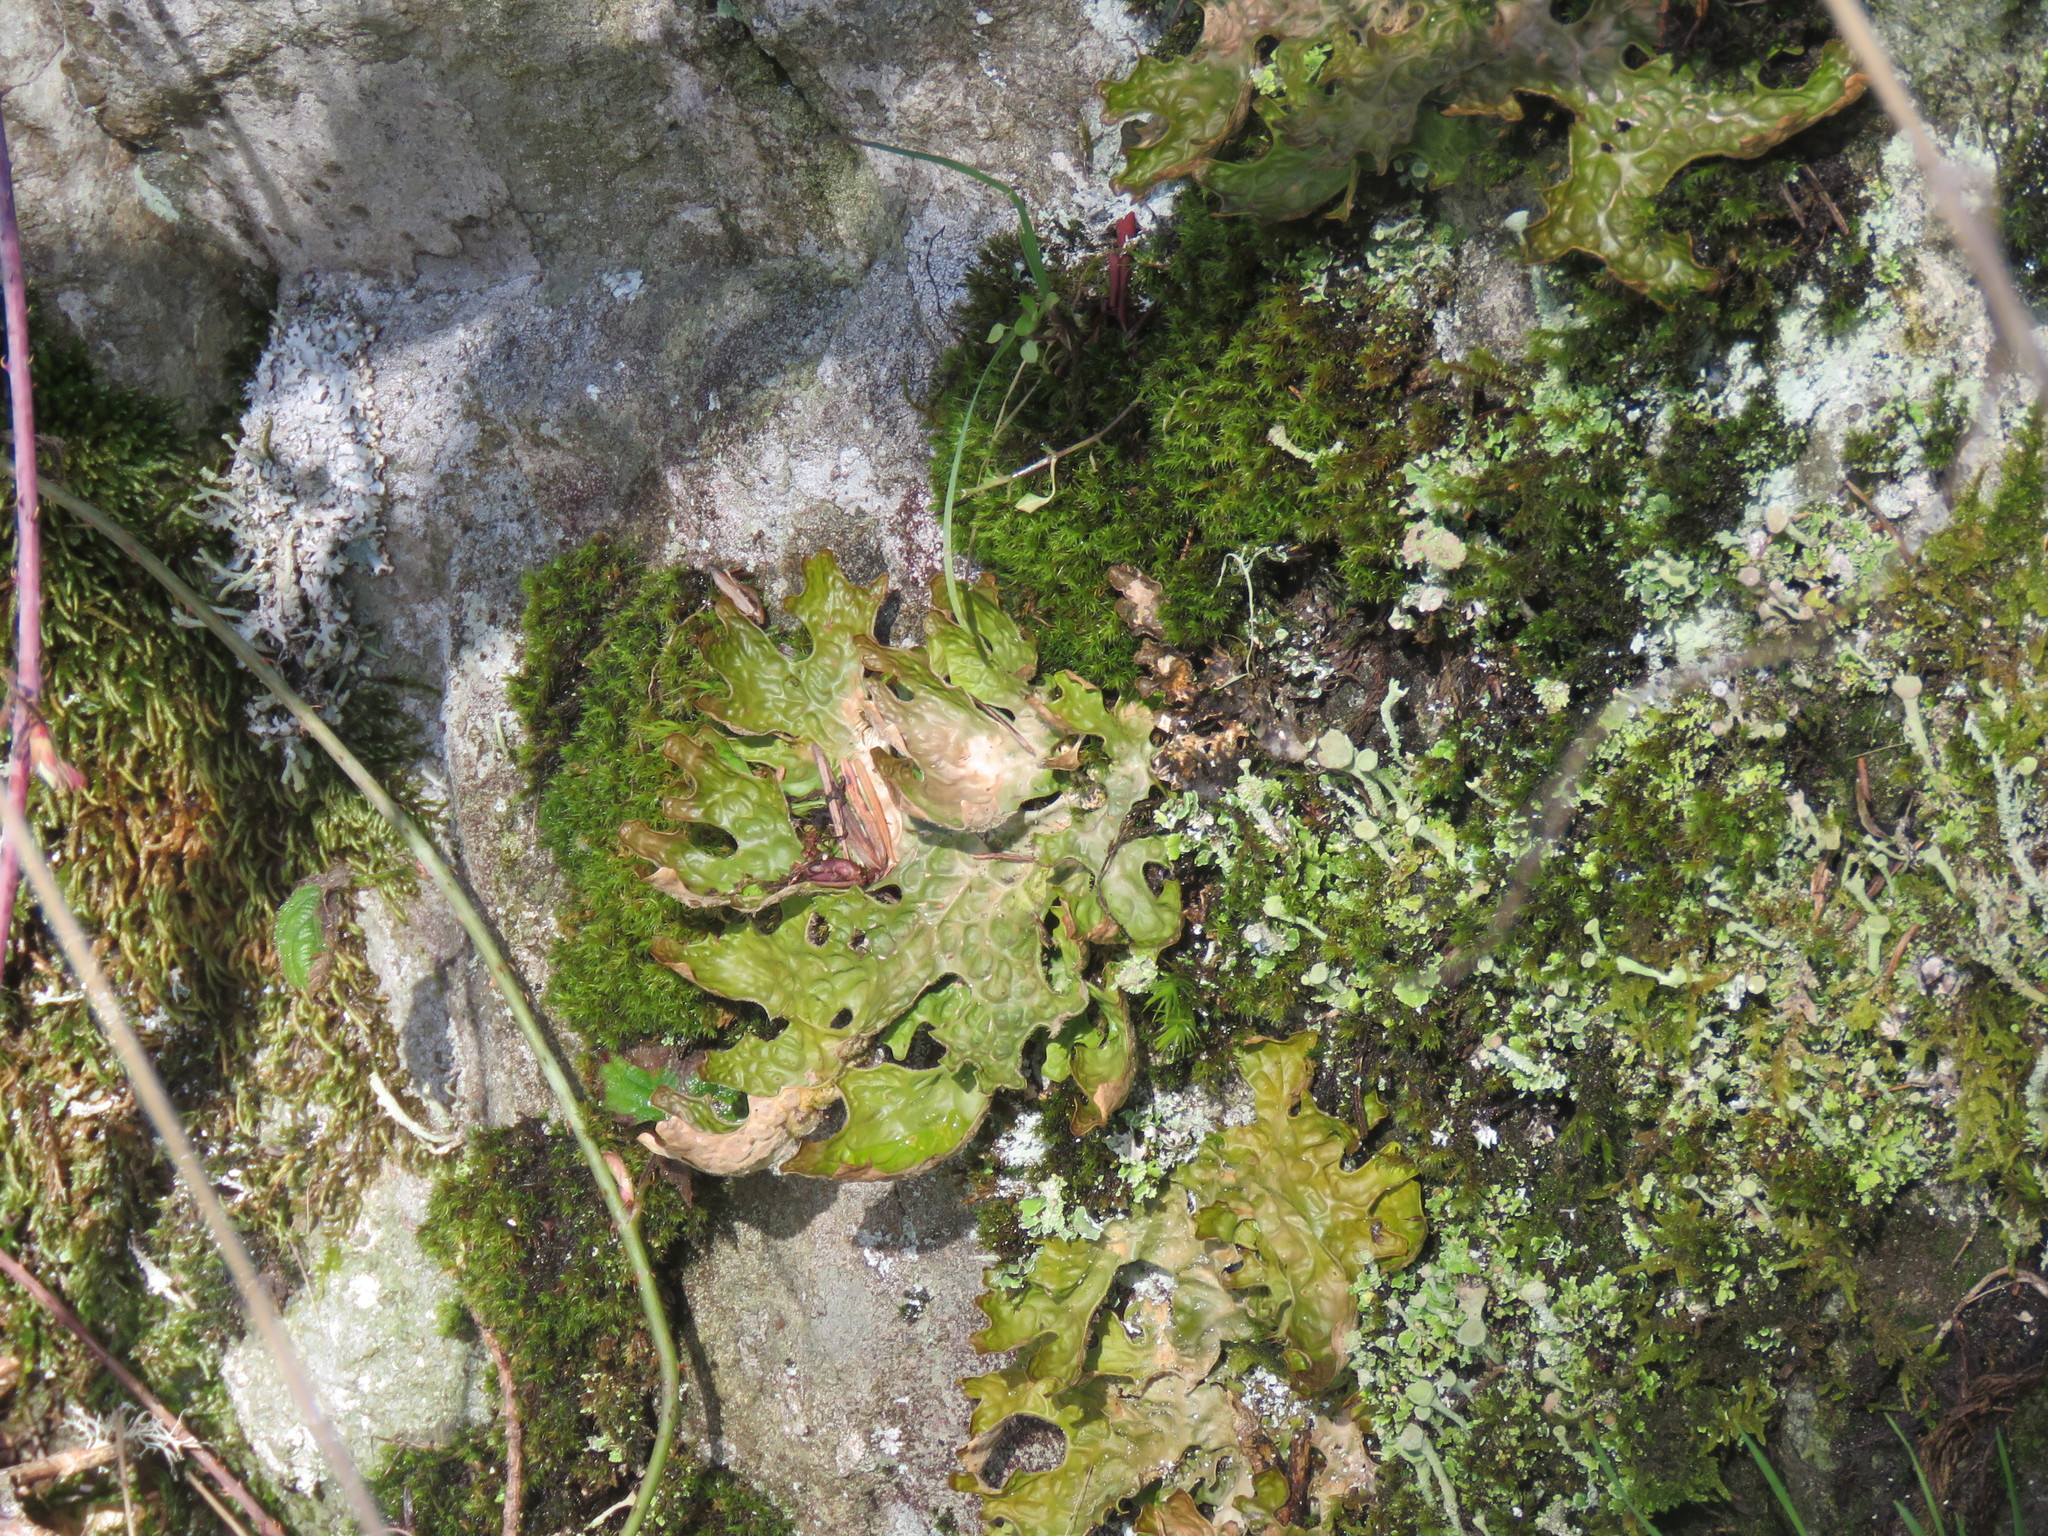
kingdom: Fungi
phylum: Ascomycota
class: Lecanoromycetes
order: Peltigerales
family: Lobariaceae
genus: Lobaria
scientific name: Lobaria pulmonaria
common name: Lungwort
